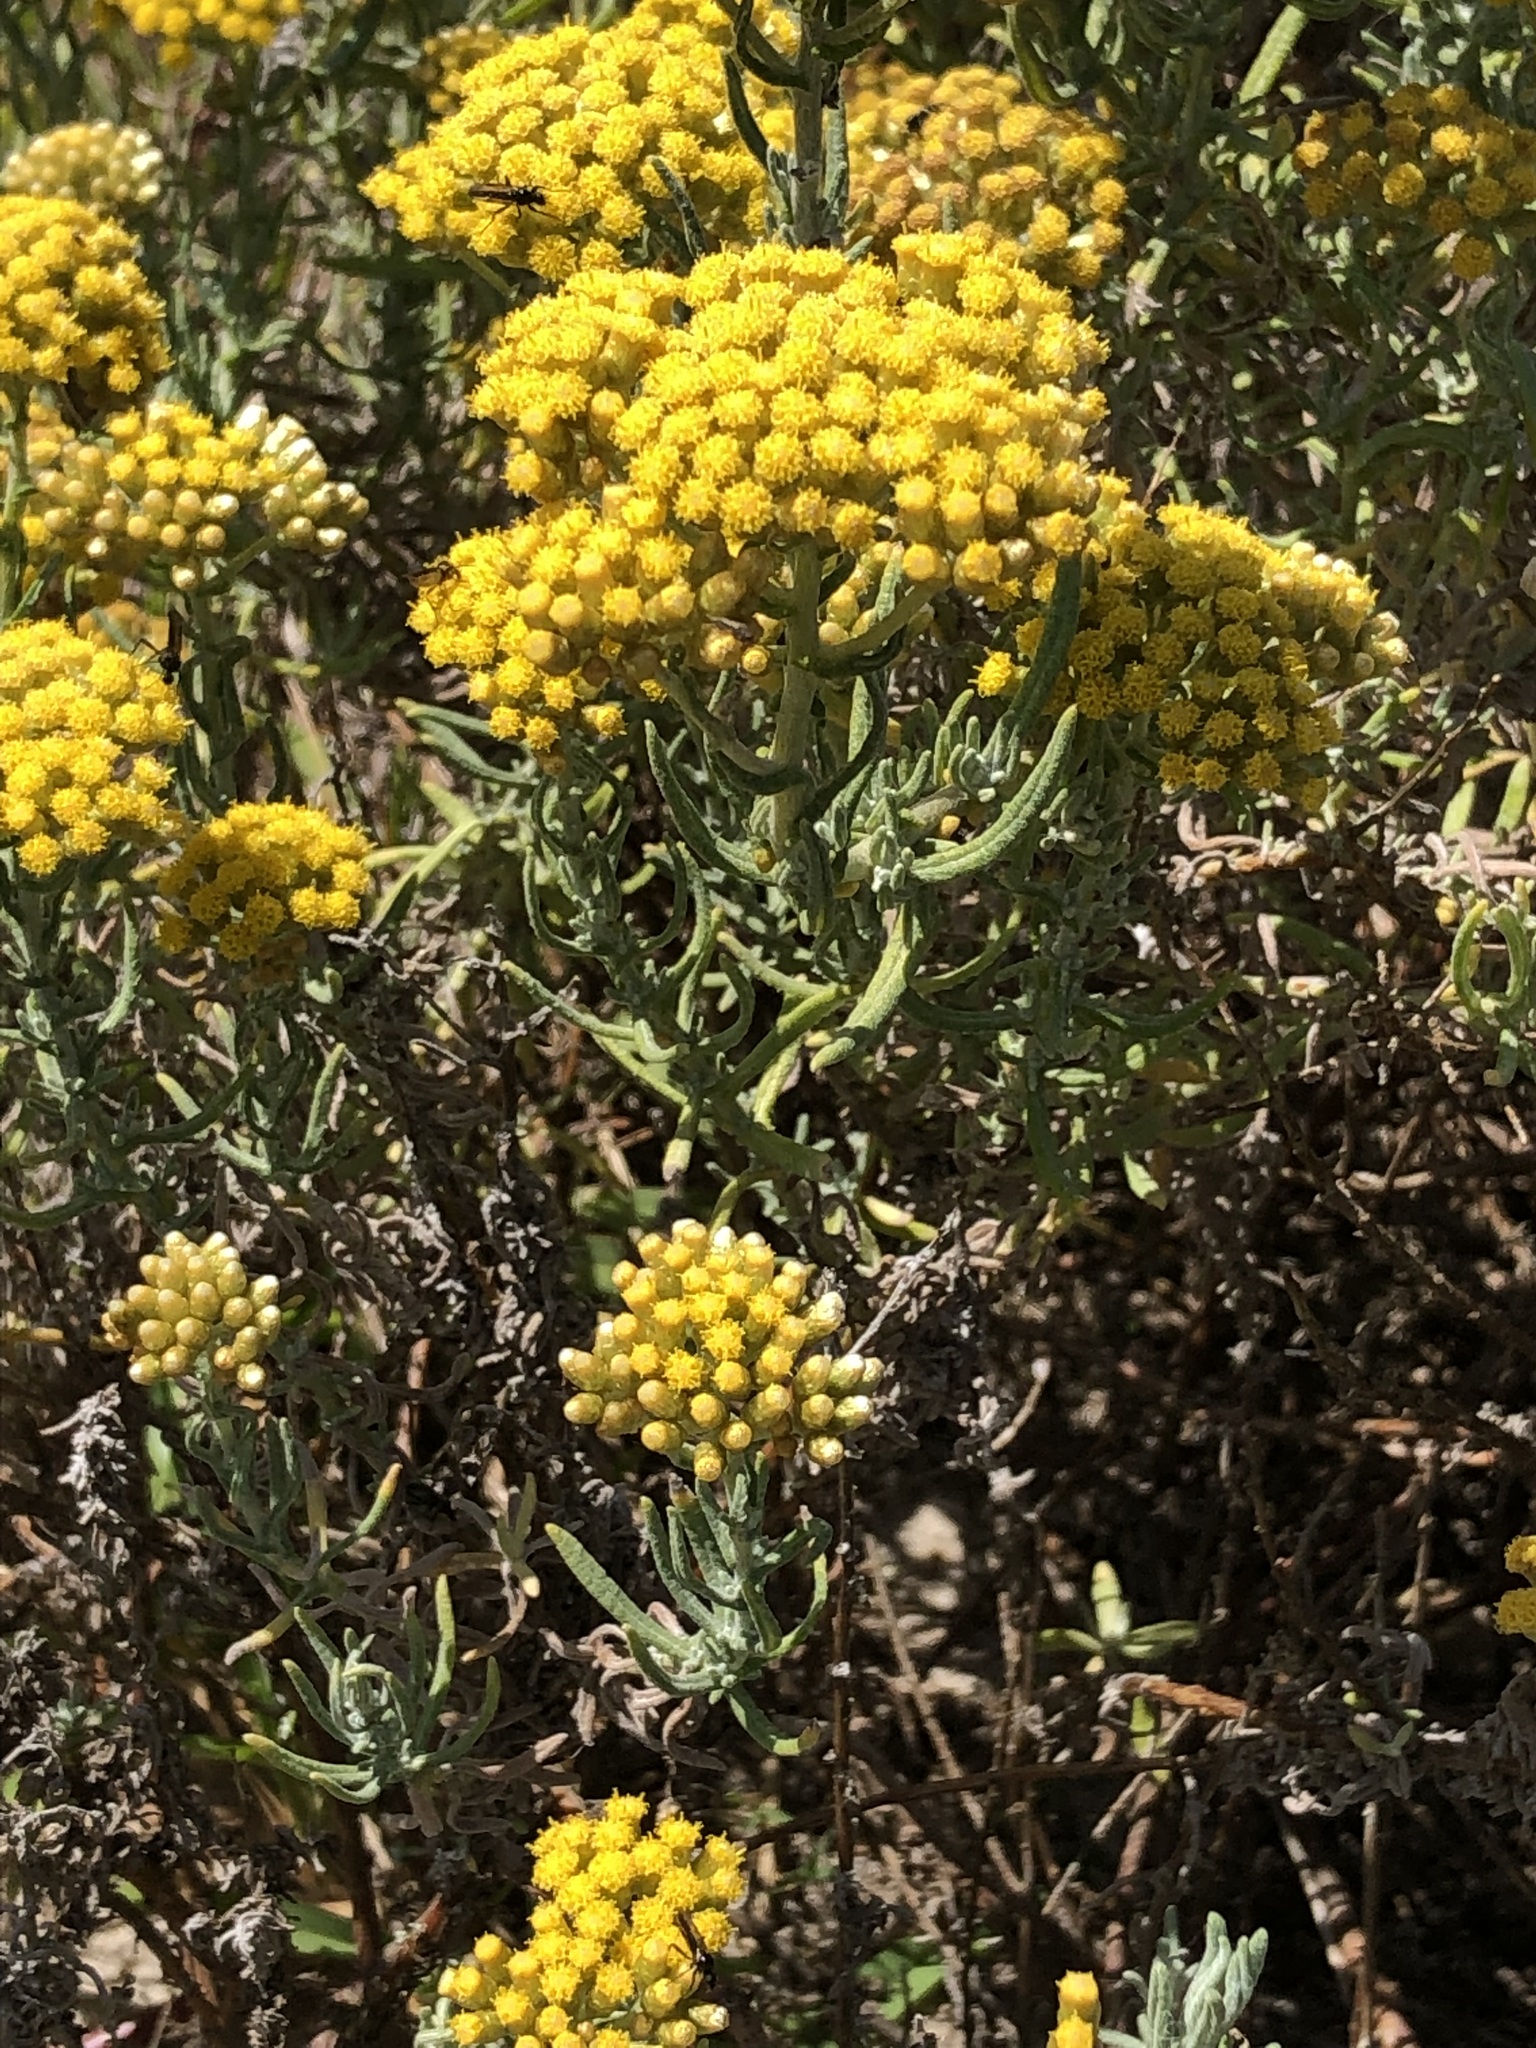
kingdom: Plantae
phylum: Tracheophyta
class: Magnoliopsida
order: Asterales
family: Asteraceae
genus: Helichrysum
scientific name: Helichrysum revolutum
